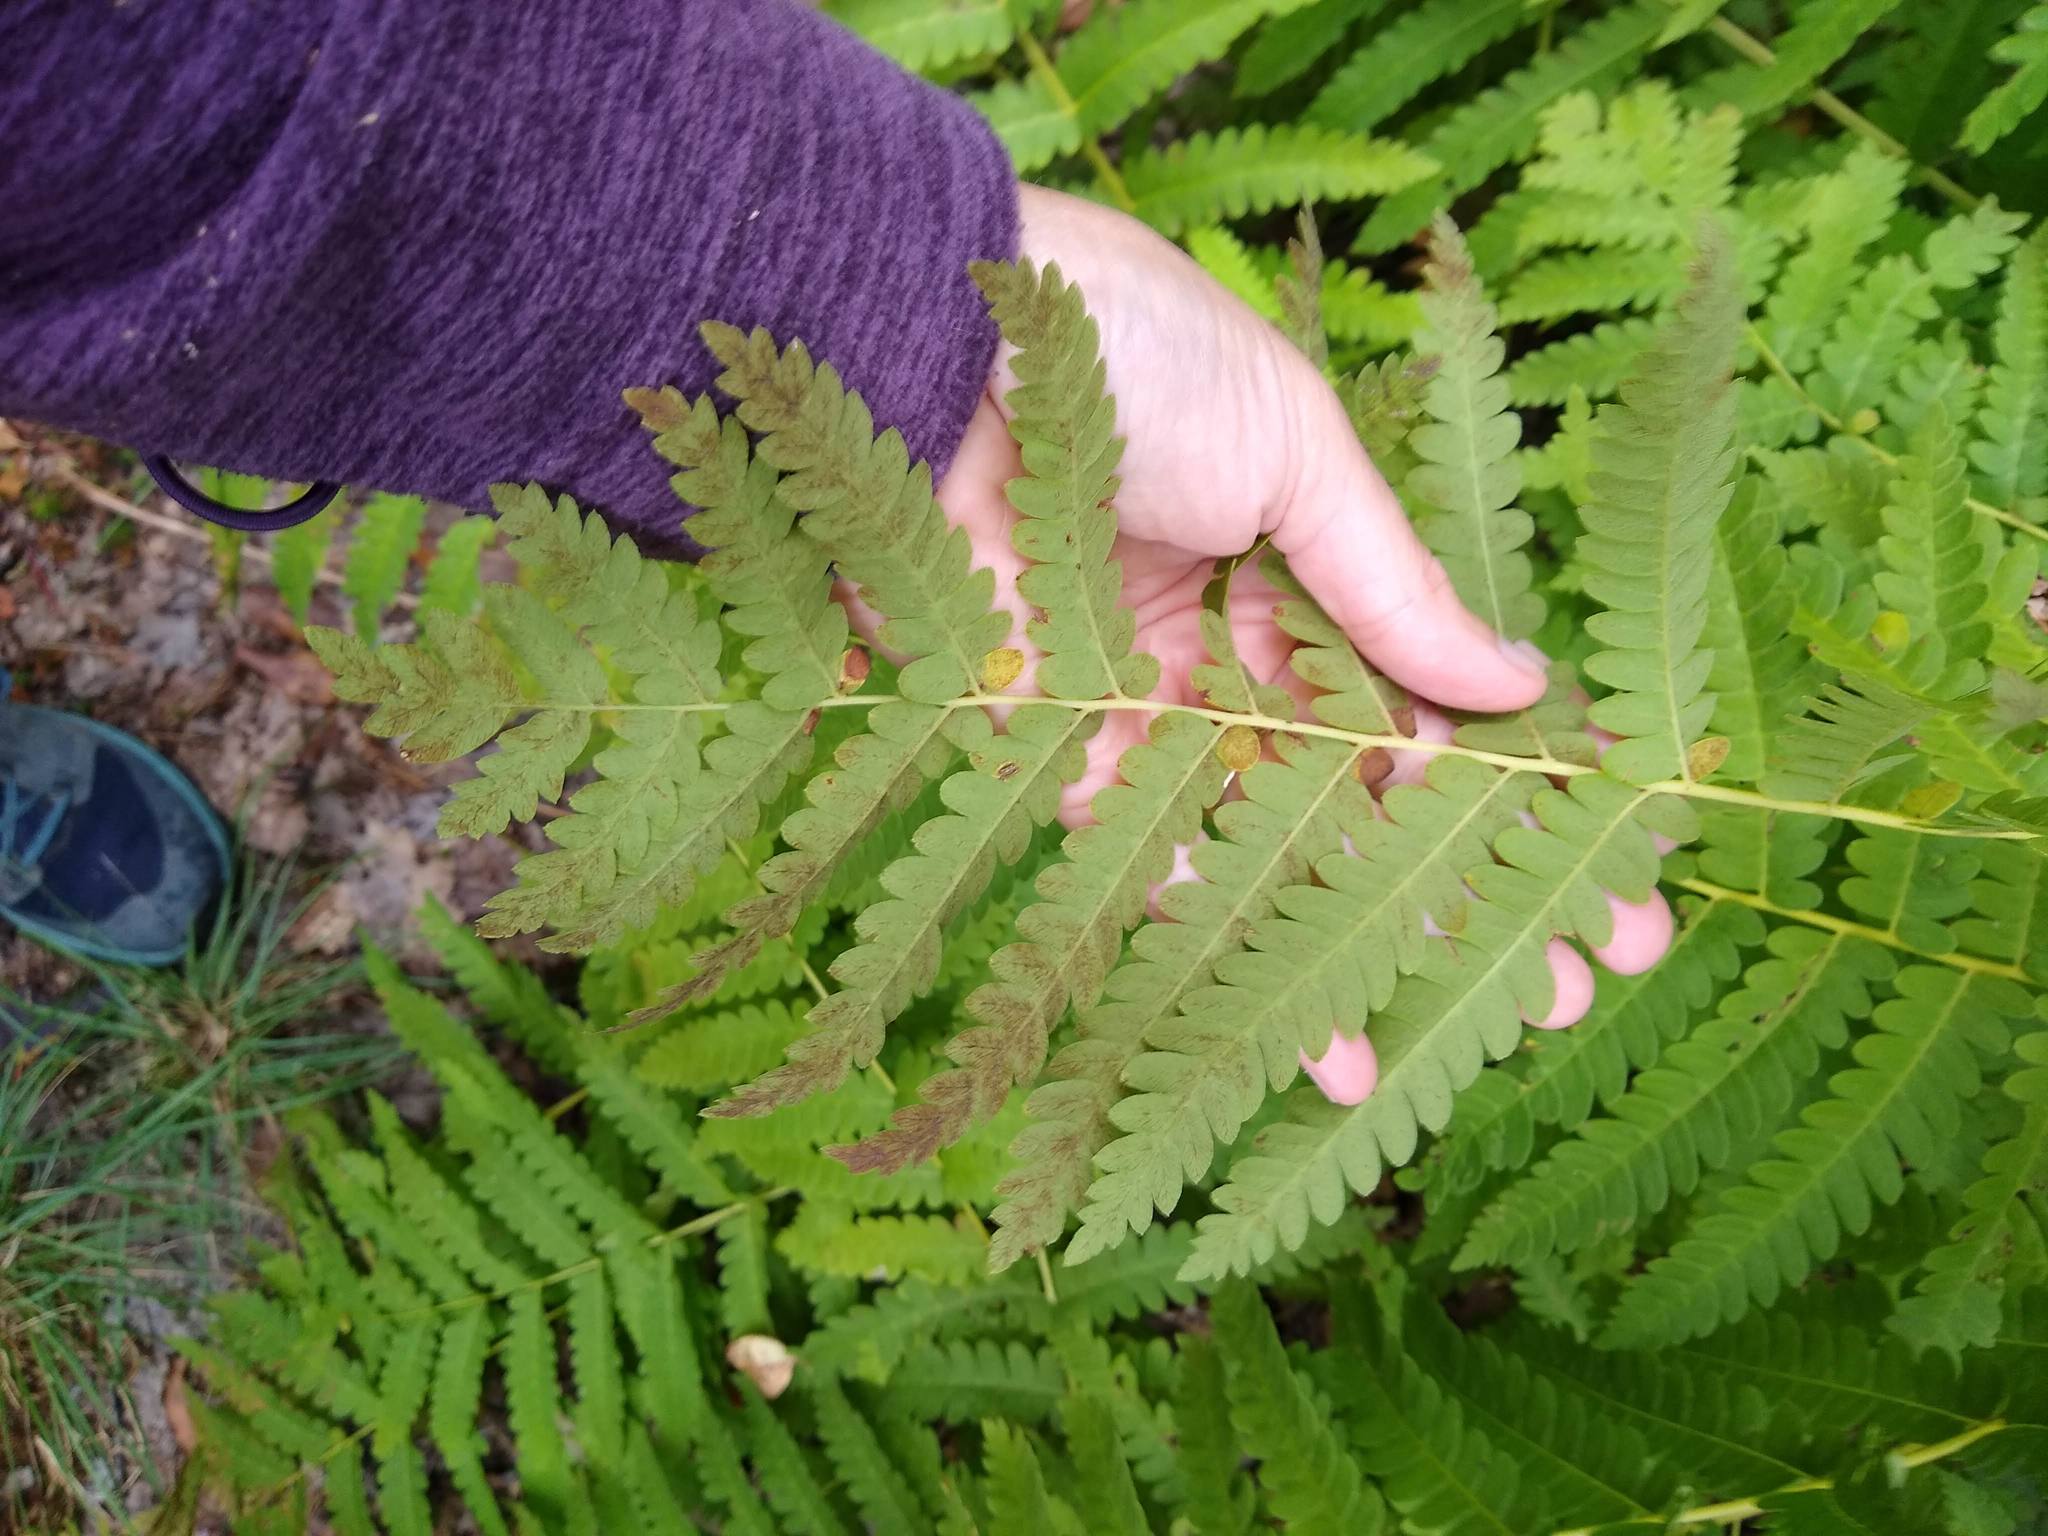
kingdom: Plantae
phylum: Tracheophyta
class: Polypodiopsida
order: Osmundales
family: Osmundaceae
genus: Claytosmunda
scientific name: Claytosmunda claytoniana
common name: Clayton's fern
